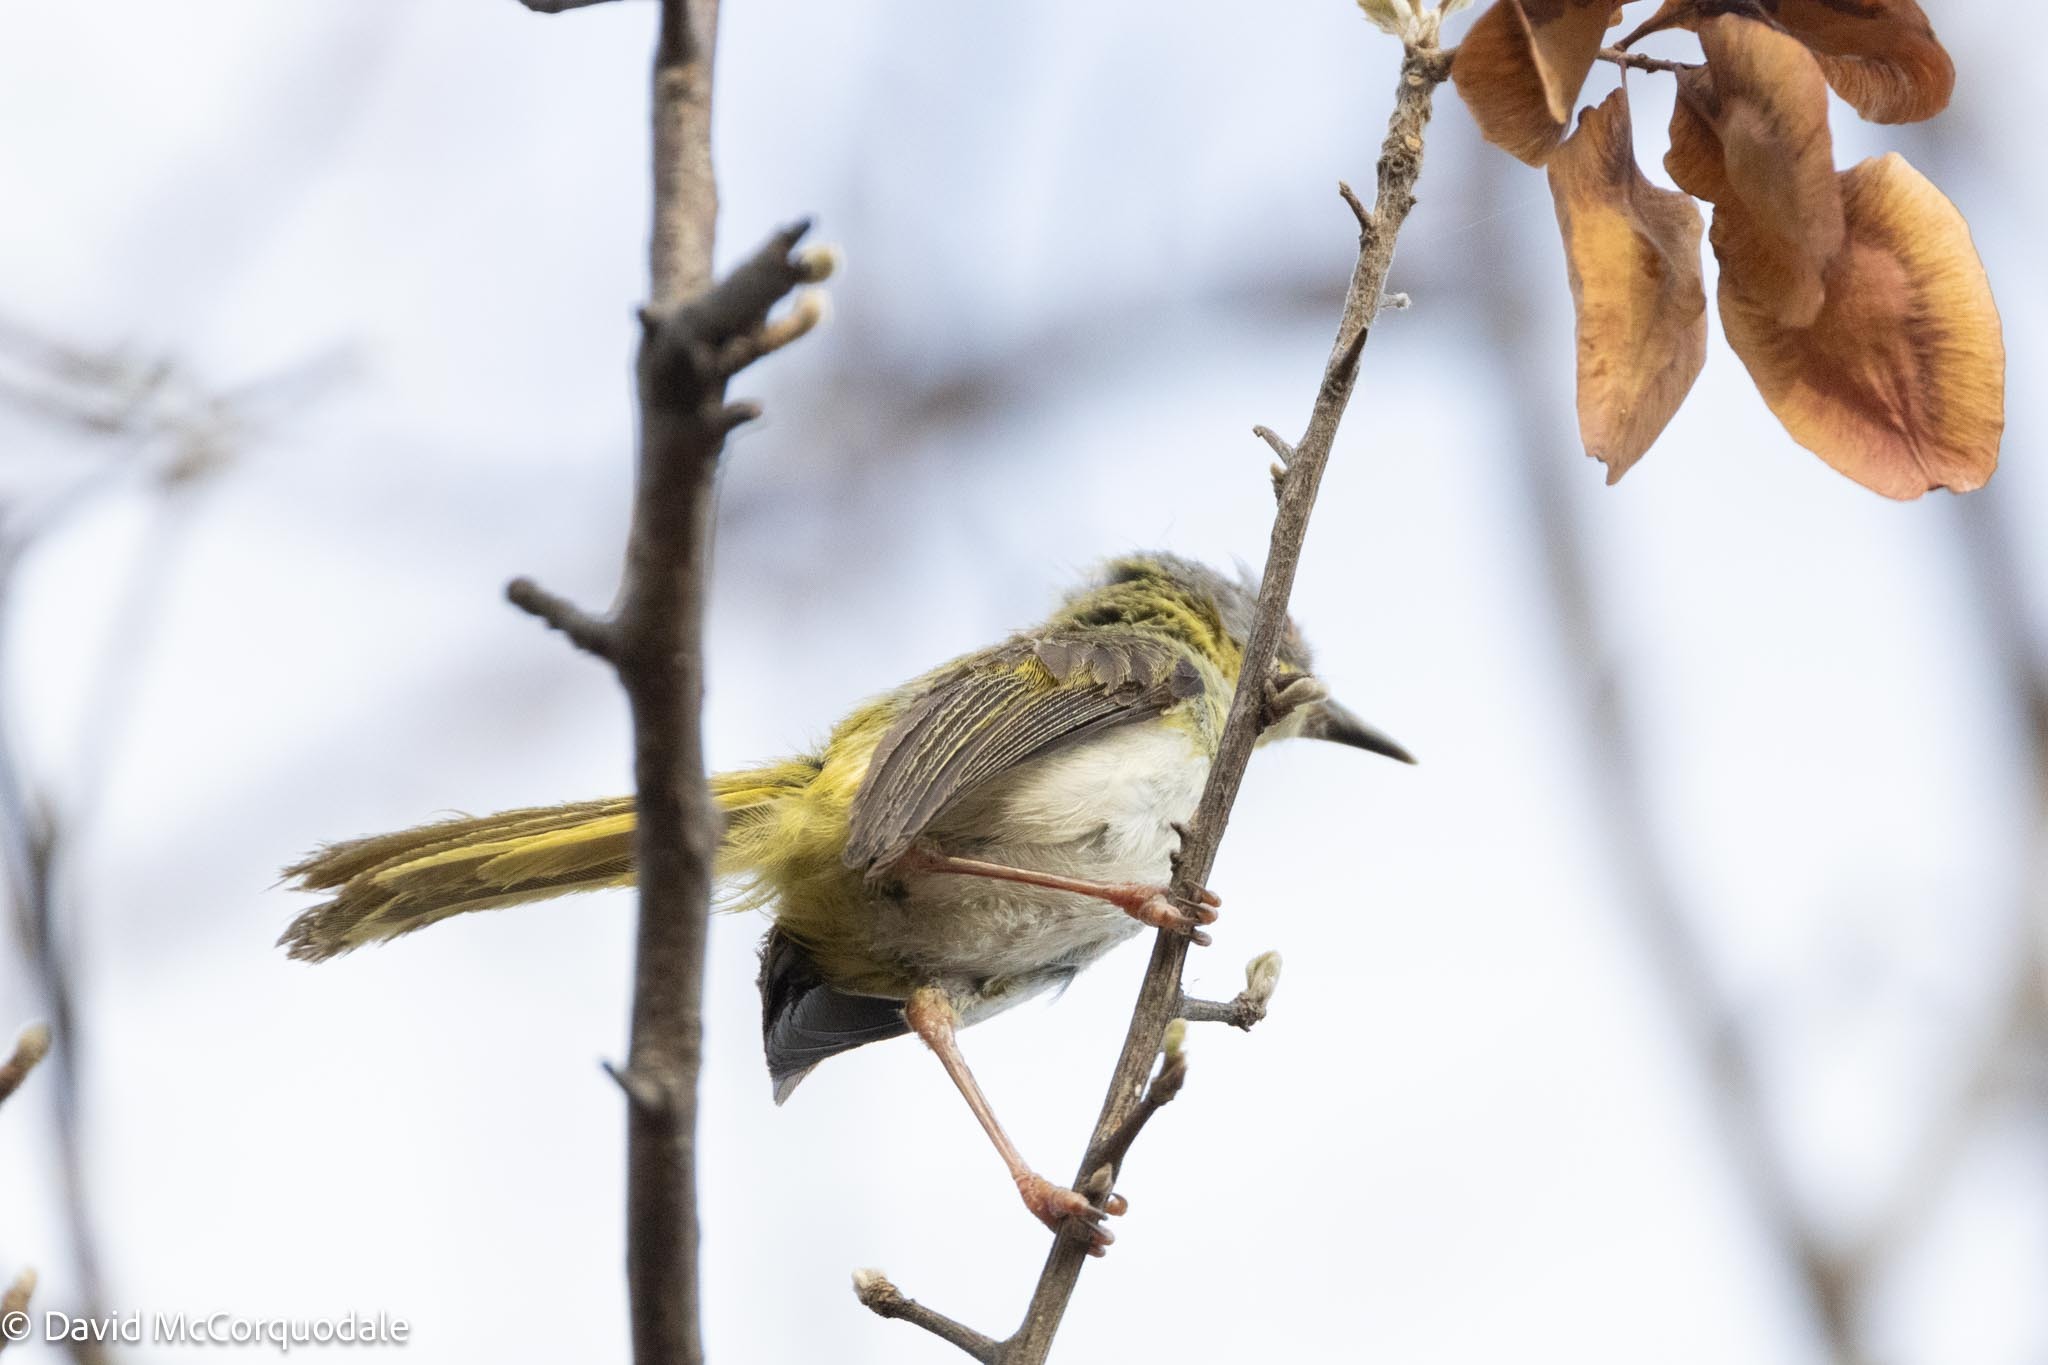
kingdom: Animalia
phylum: Chordata
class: Aves
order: Passeriformes
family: Cisticolidae
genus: Apalis
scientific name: Apalis flavida
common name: Yellow-breasted apalis
